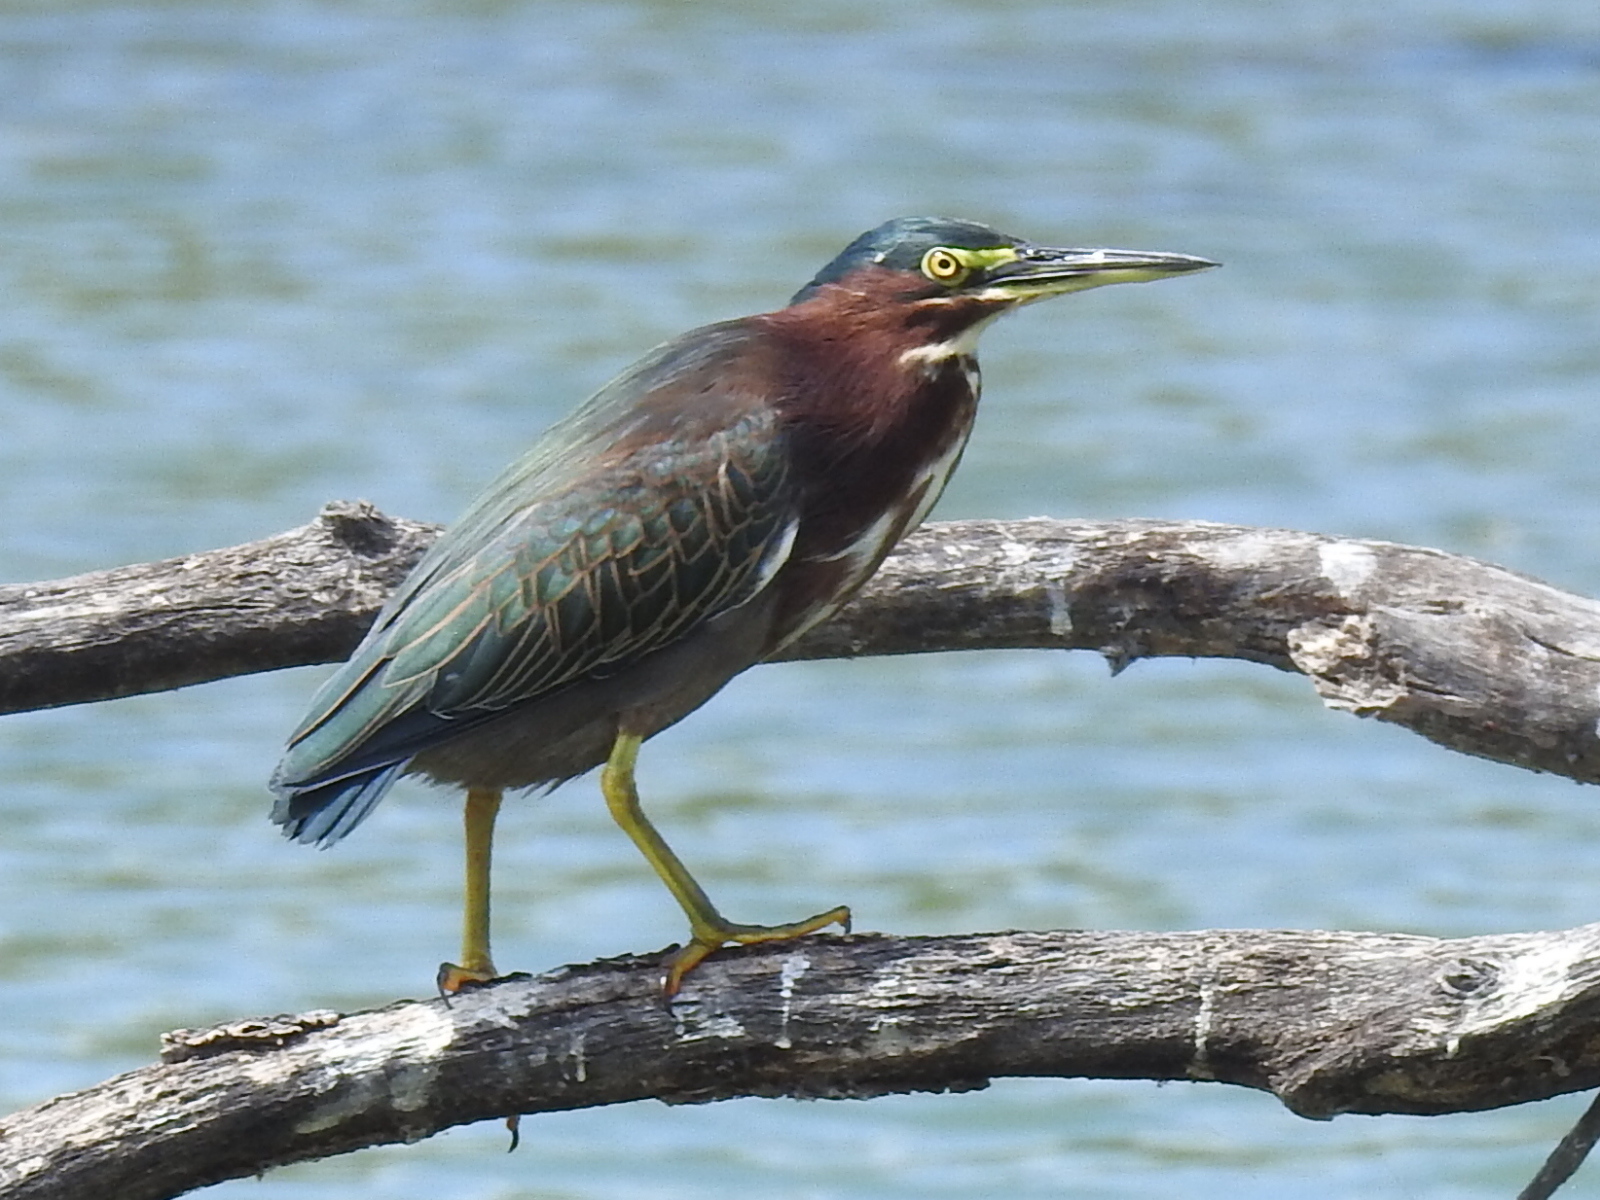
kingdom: Animalia
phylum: Chordata
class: Aves
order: Pelecaniformes
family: Ardeidae
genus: Butorides
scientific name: Butorides virescens
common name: Green heron
